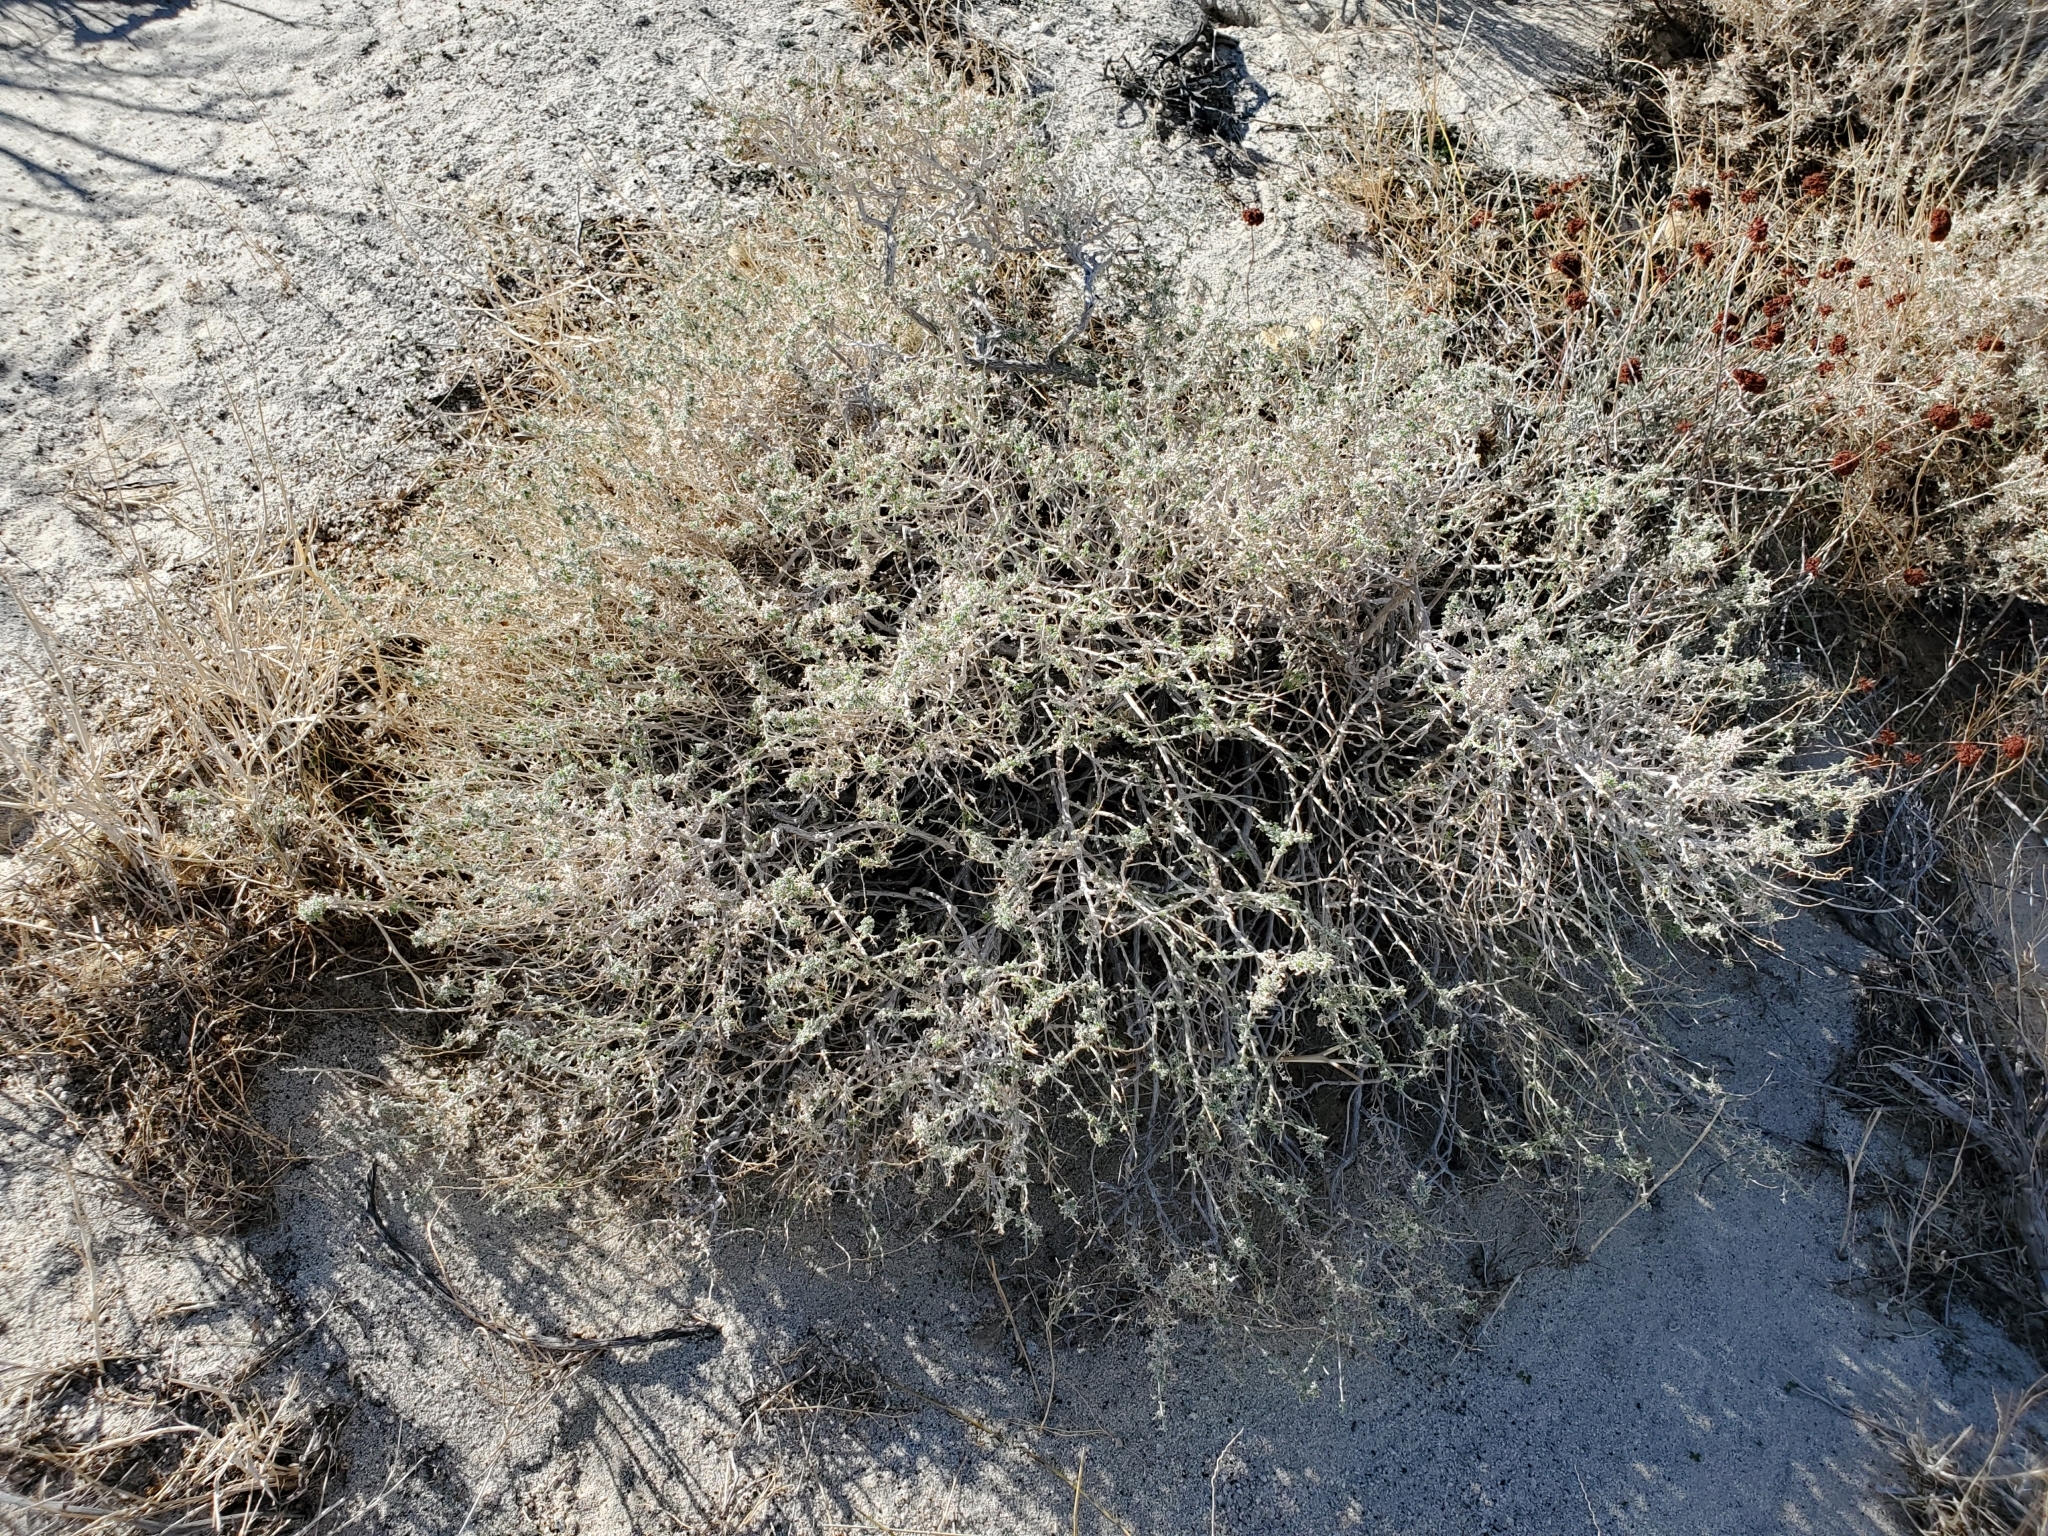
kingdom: Plantae
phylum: Tracheophyta
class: Magnoliopsida
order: Caryophyllales
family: Polygonaceae
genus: Eriogonum
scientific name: Eriogonum fasciculatum
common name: California wild buckwheat
